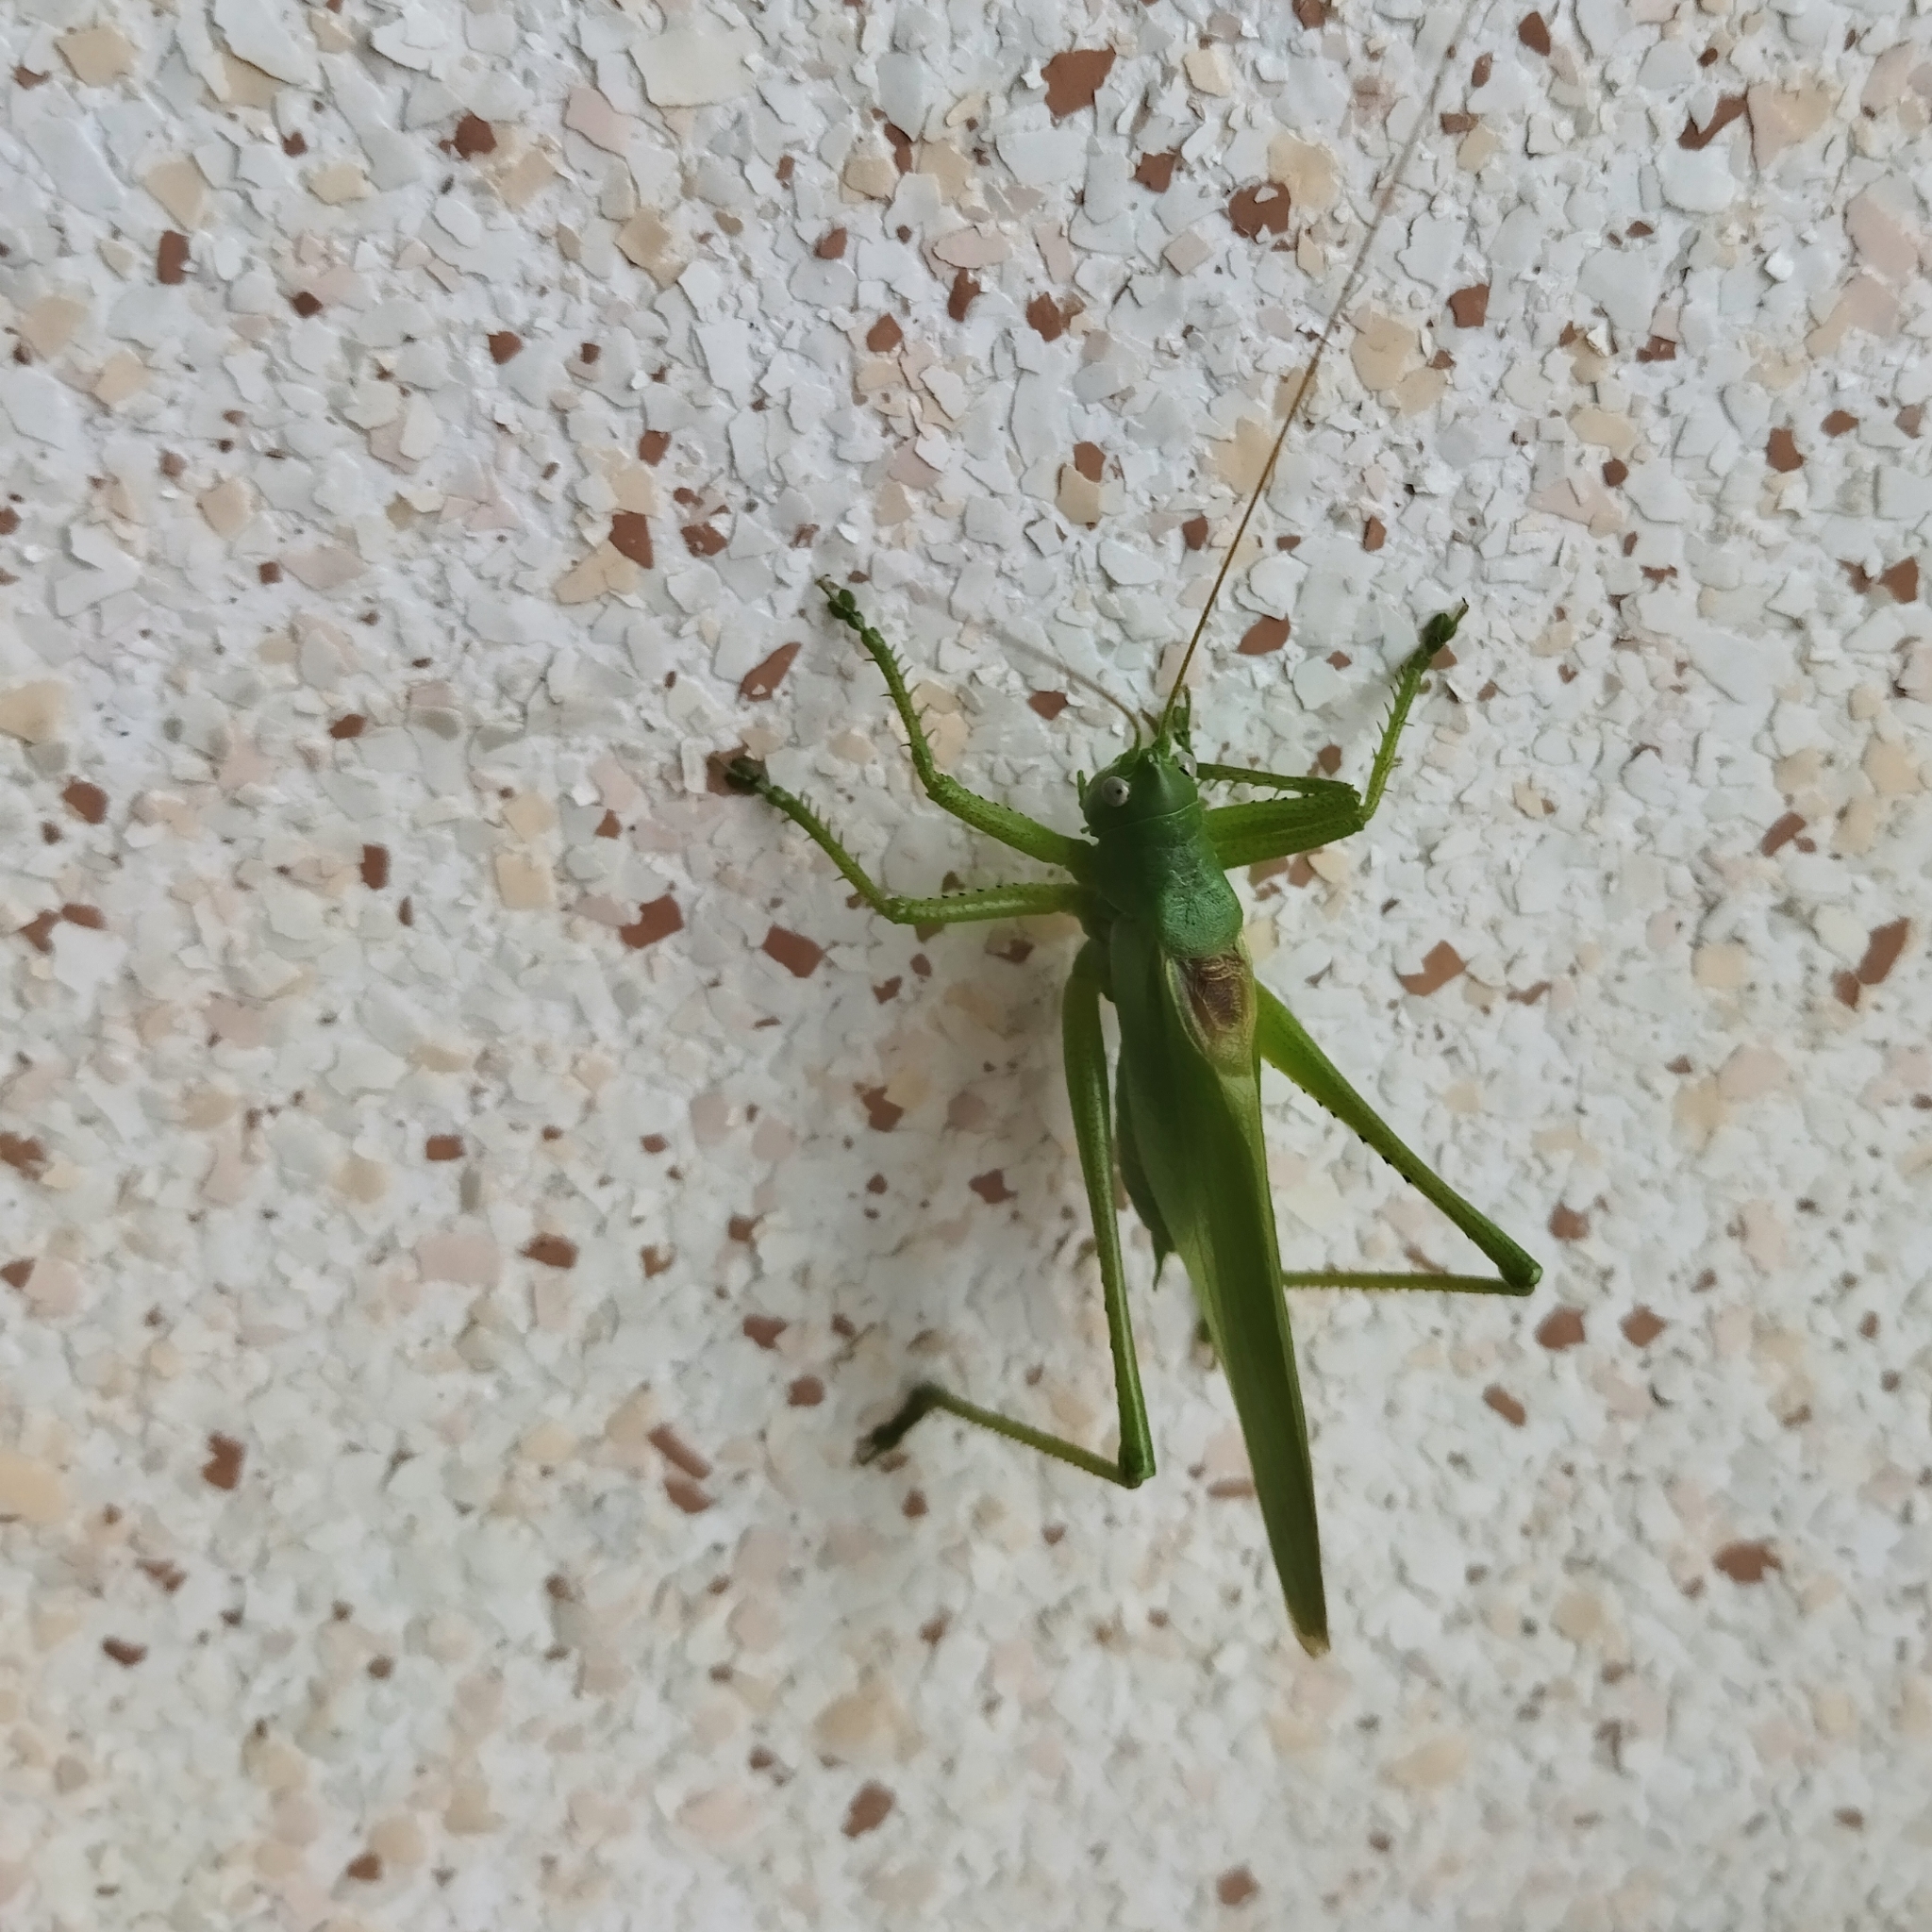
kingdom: Animalia
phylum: Arthropoda
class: Insecta
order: Orthoptera
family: Tettigoniidae
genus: Tettigonia
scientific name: Tettigonia caudata
